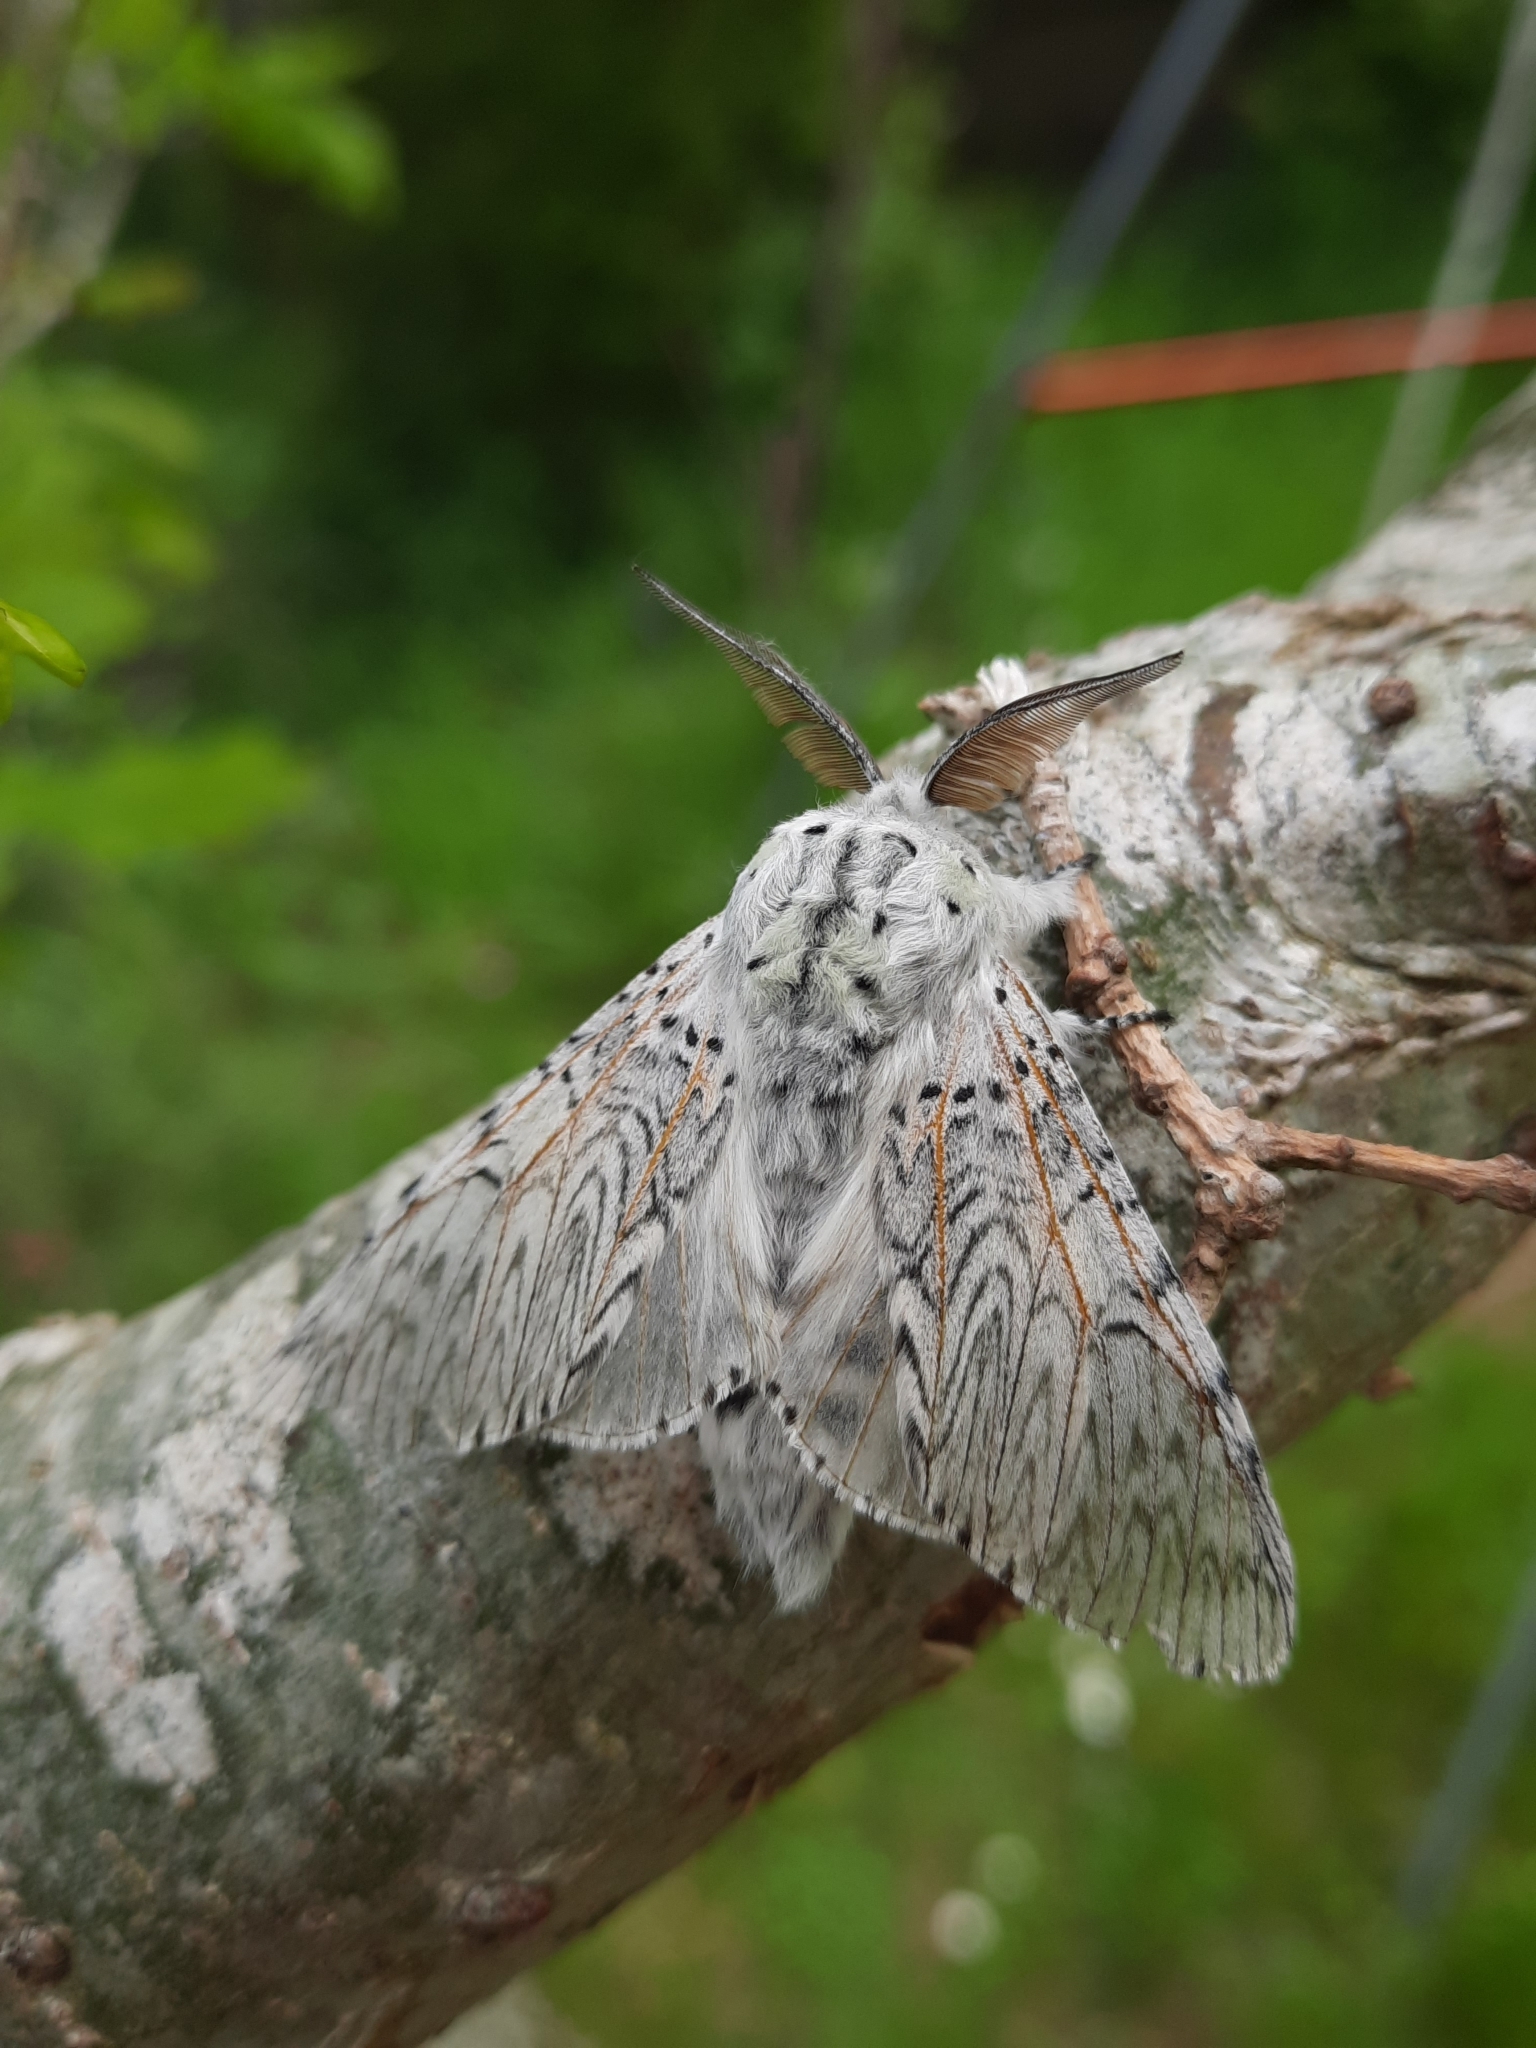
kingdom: Animalia
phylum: Arthropoda
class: Insecta
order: Lepidoptera
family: Notodontidae
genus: Cerura
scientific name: Cerura vinula
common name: Puss moth
